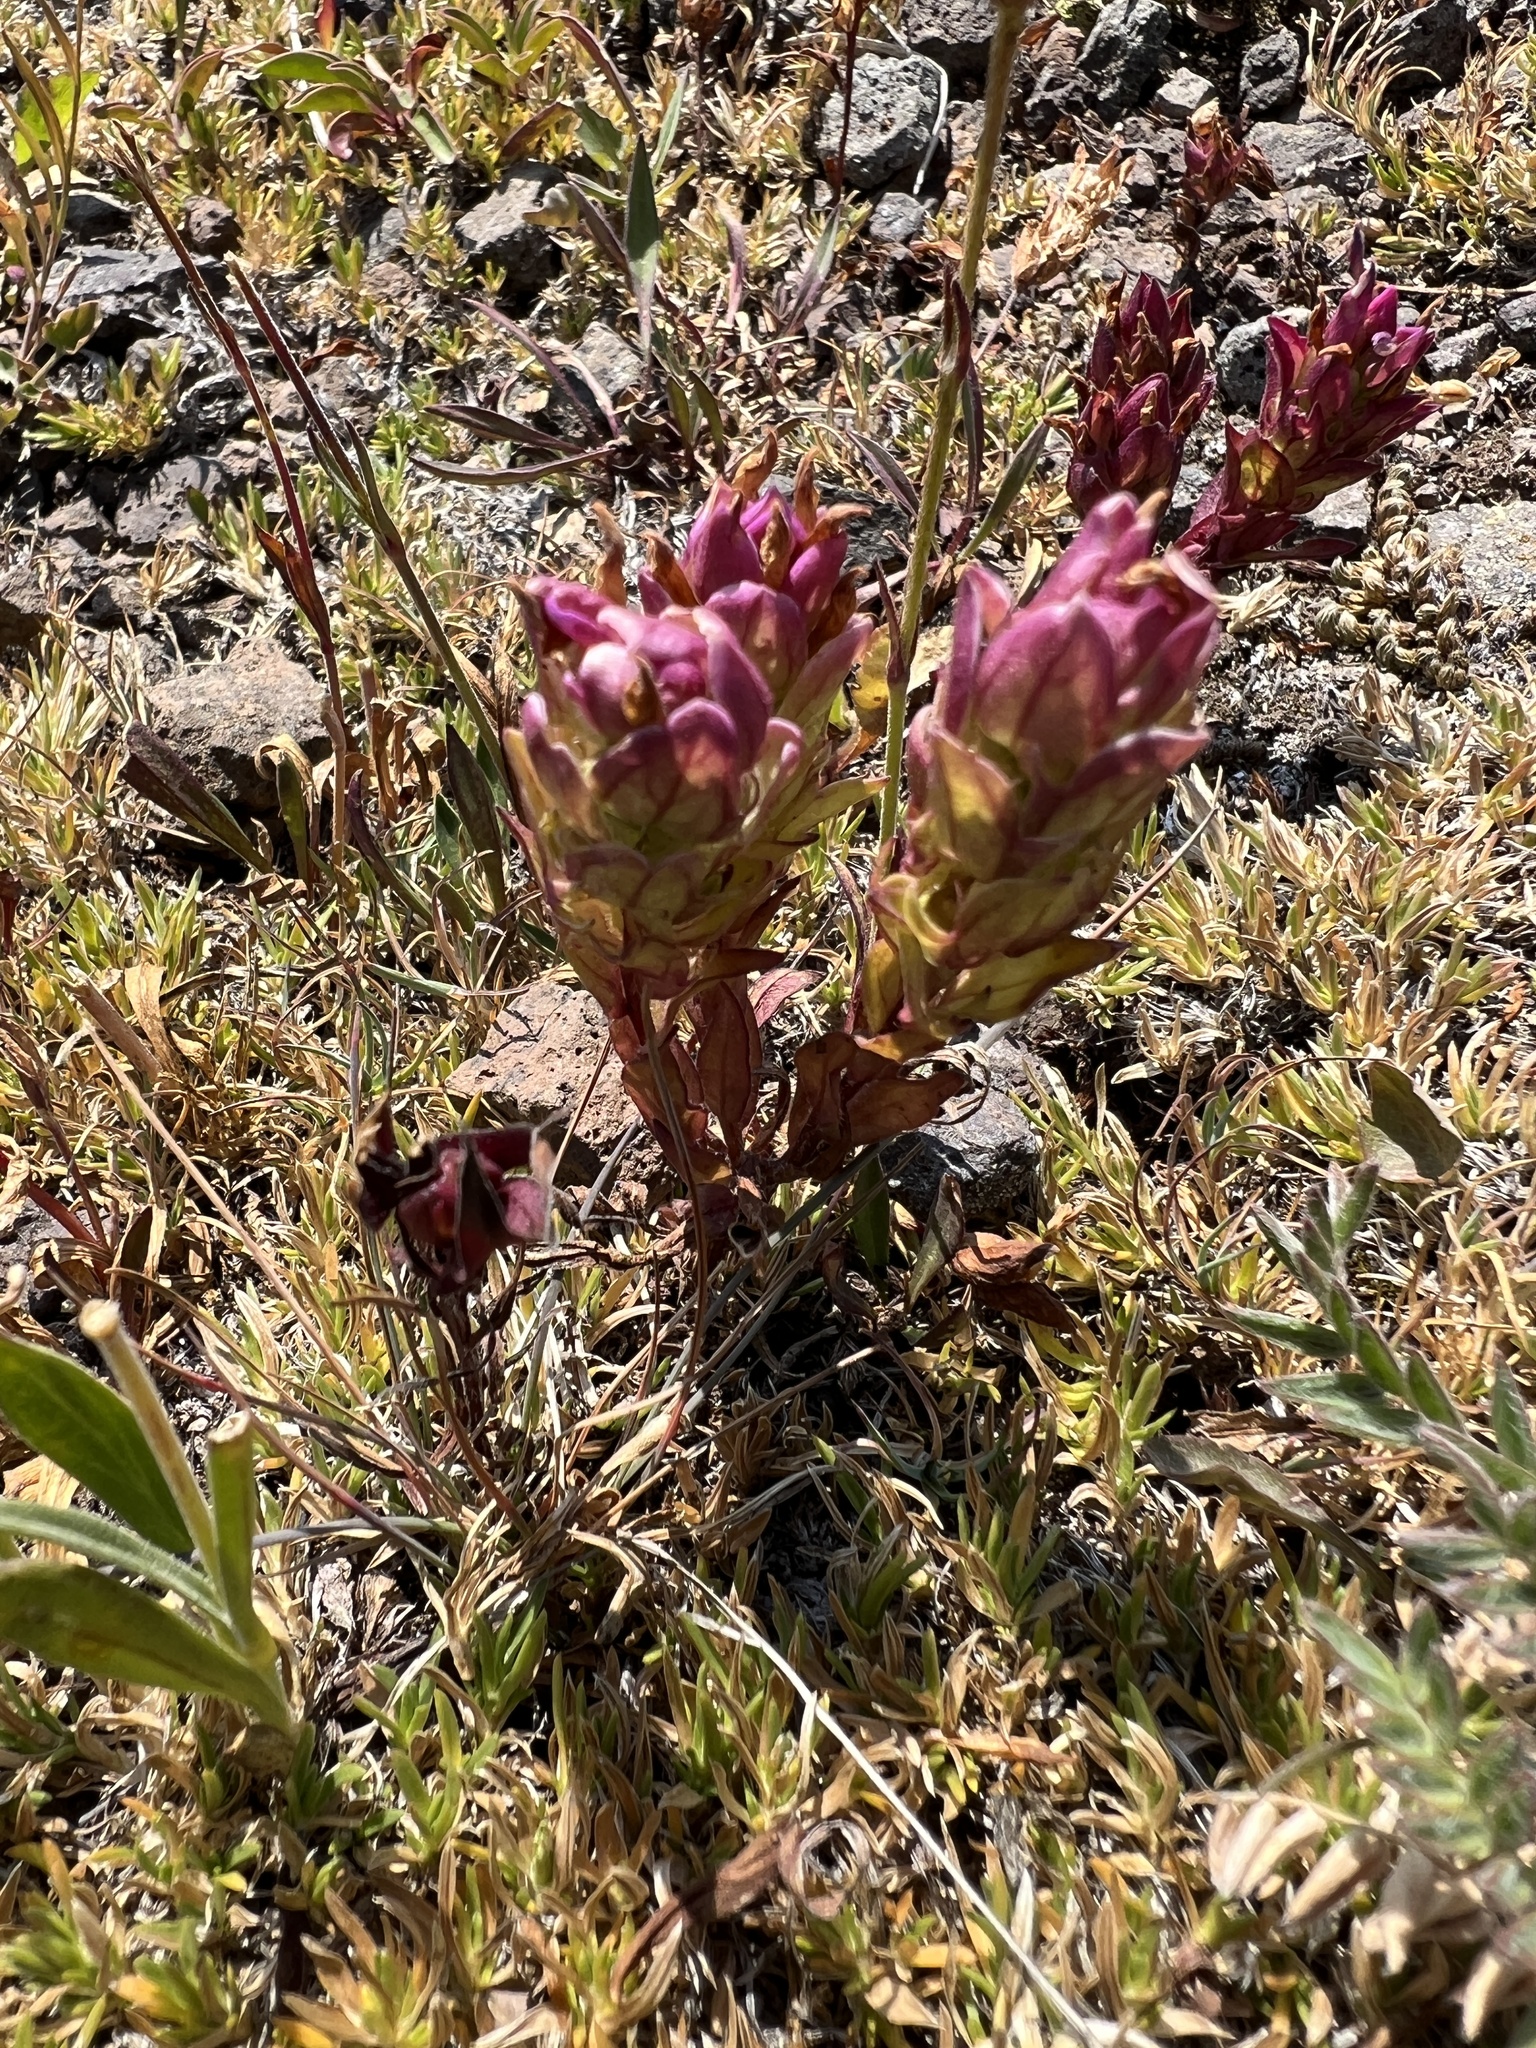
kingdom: Plantae
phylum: Tracheophyta
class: Magnoliopsida
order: Lamiales
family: Orobanchaceae
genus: Orthocarpus
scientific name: Orthocarpus imbricatus
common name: Mountain owl's-clover
